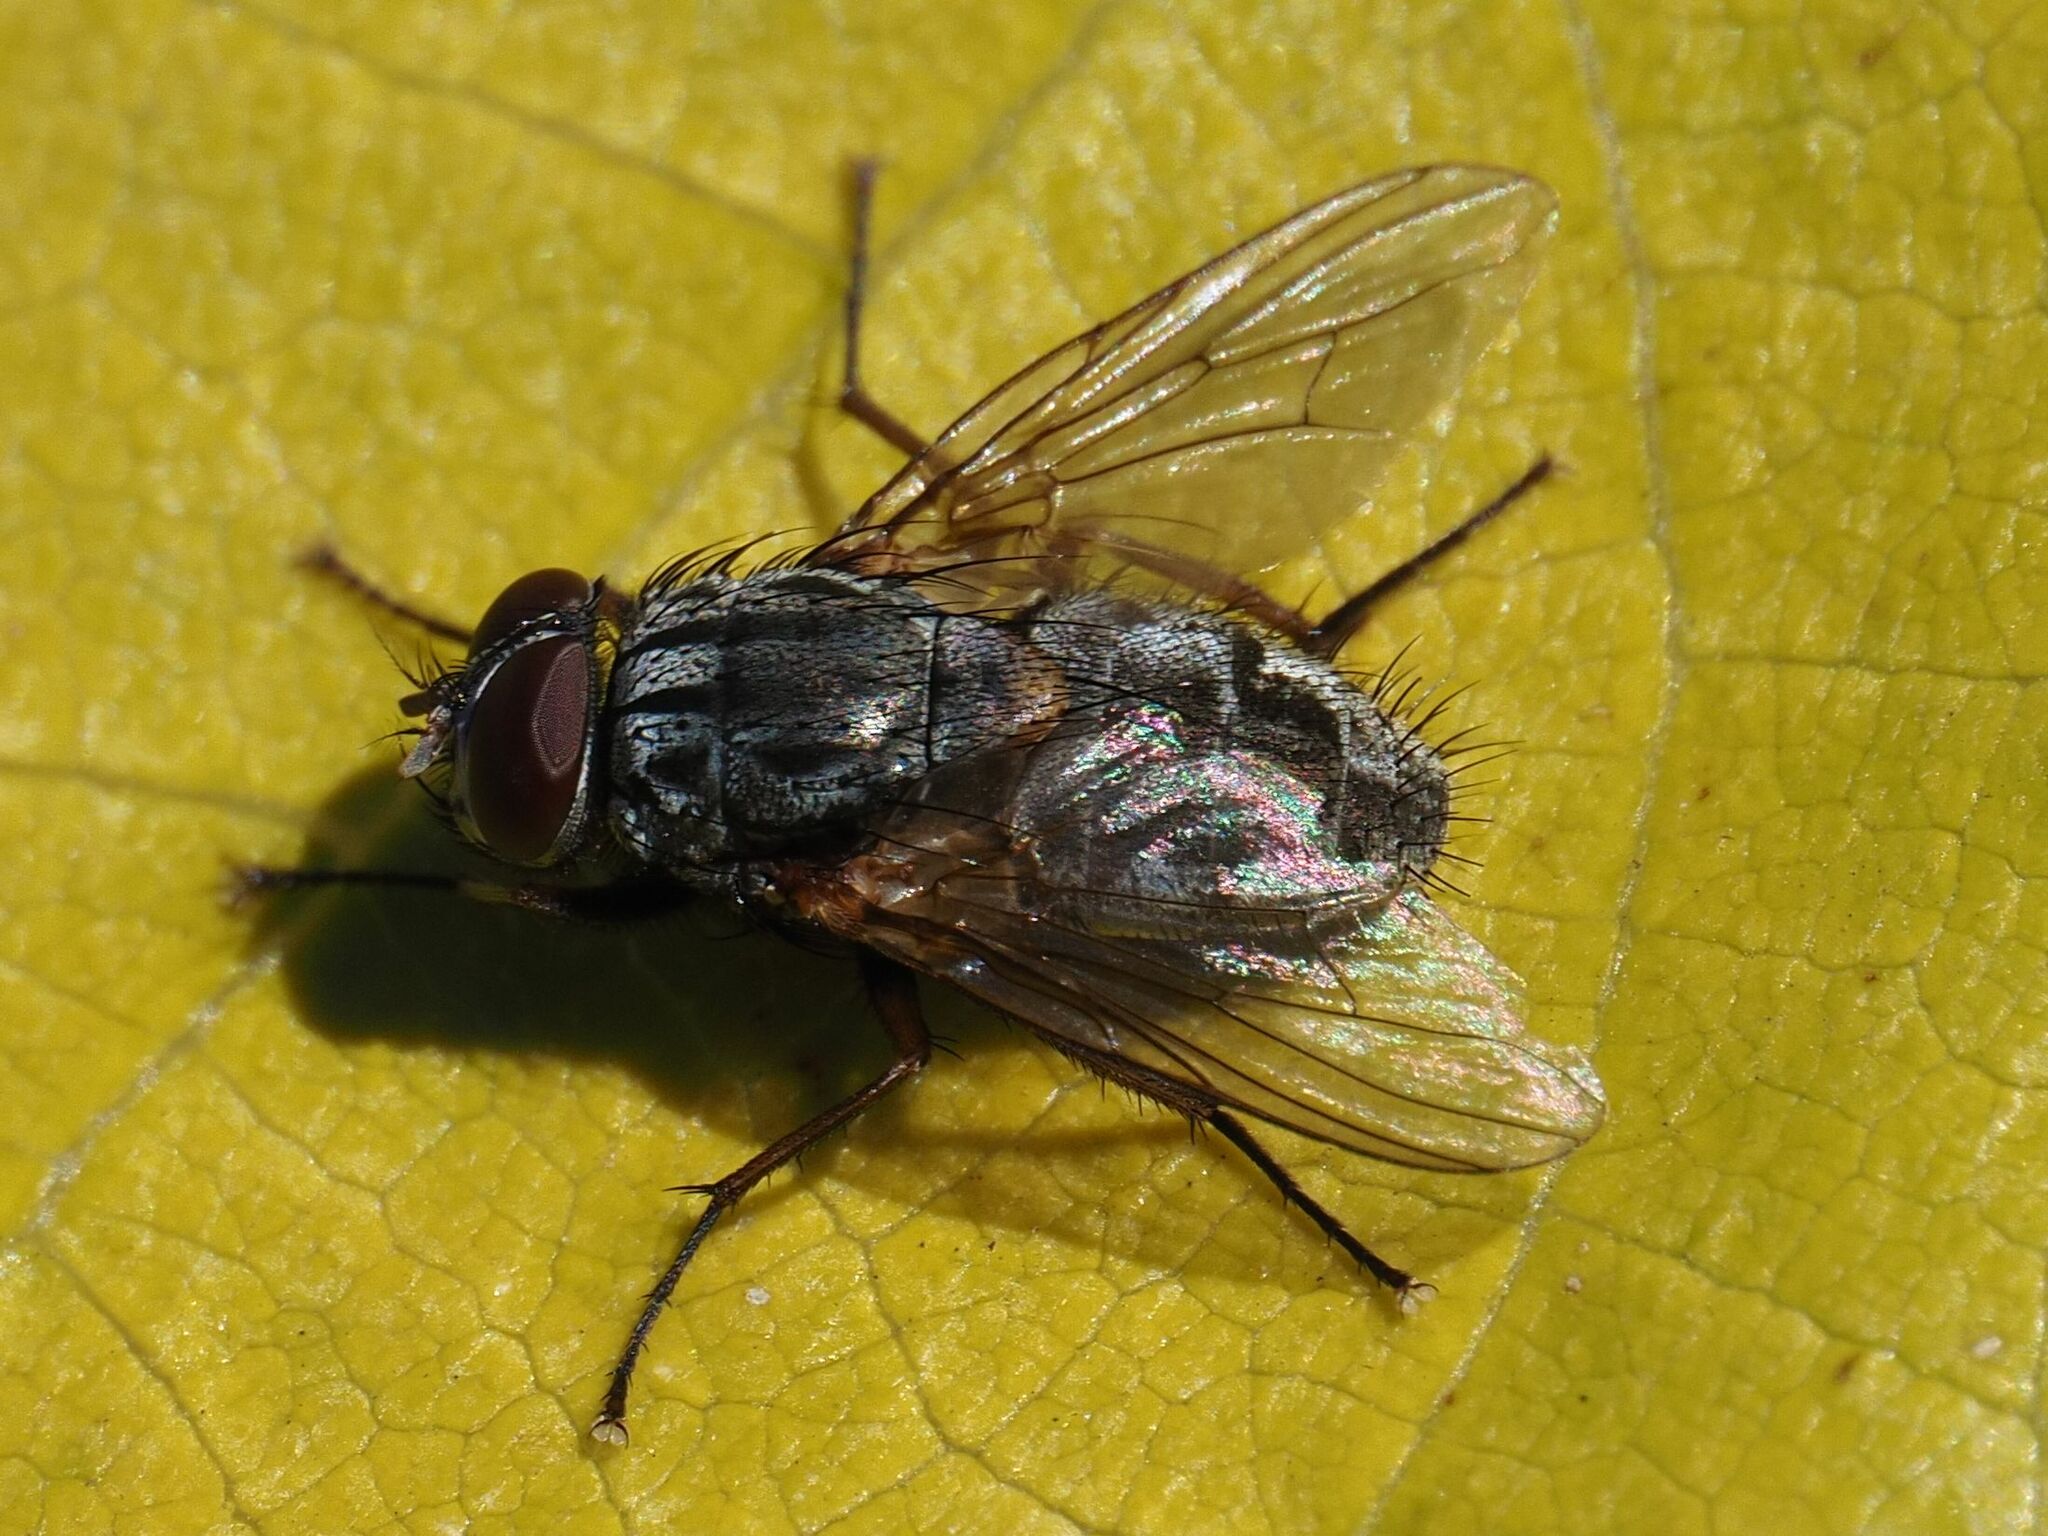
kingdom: Animalia
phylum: Arthropoda
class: Insecta
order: Diptera
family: Muscidae
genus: Muscina
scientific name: Muscina stabulans
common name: False stable fly
